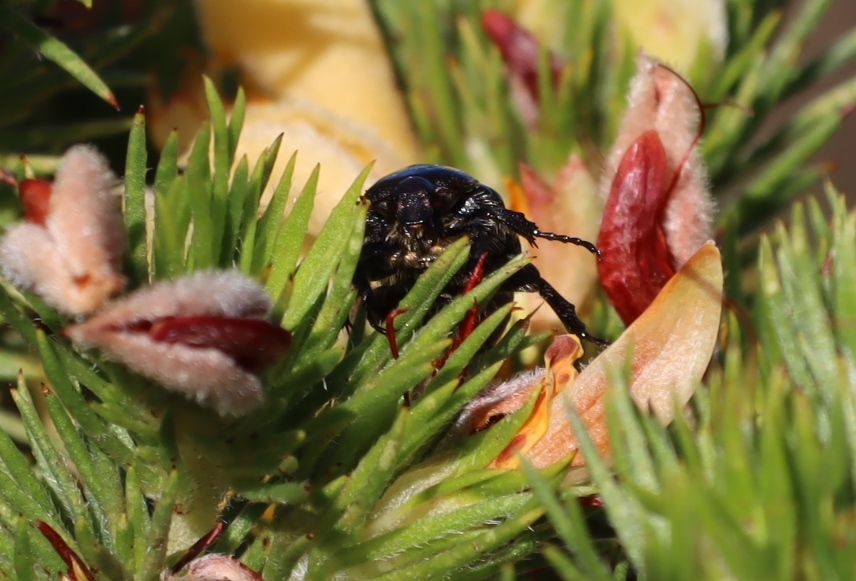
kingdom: Animalia
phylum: Arthropoda
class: Insecta
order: Coleoptera
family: Scarabaeidae
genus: Leucocelis
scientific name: Leucocelis adspersa
